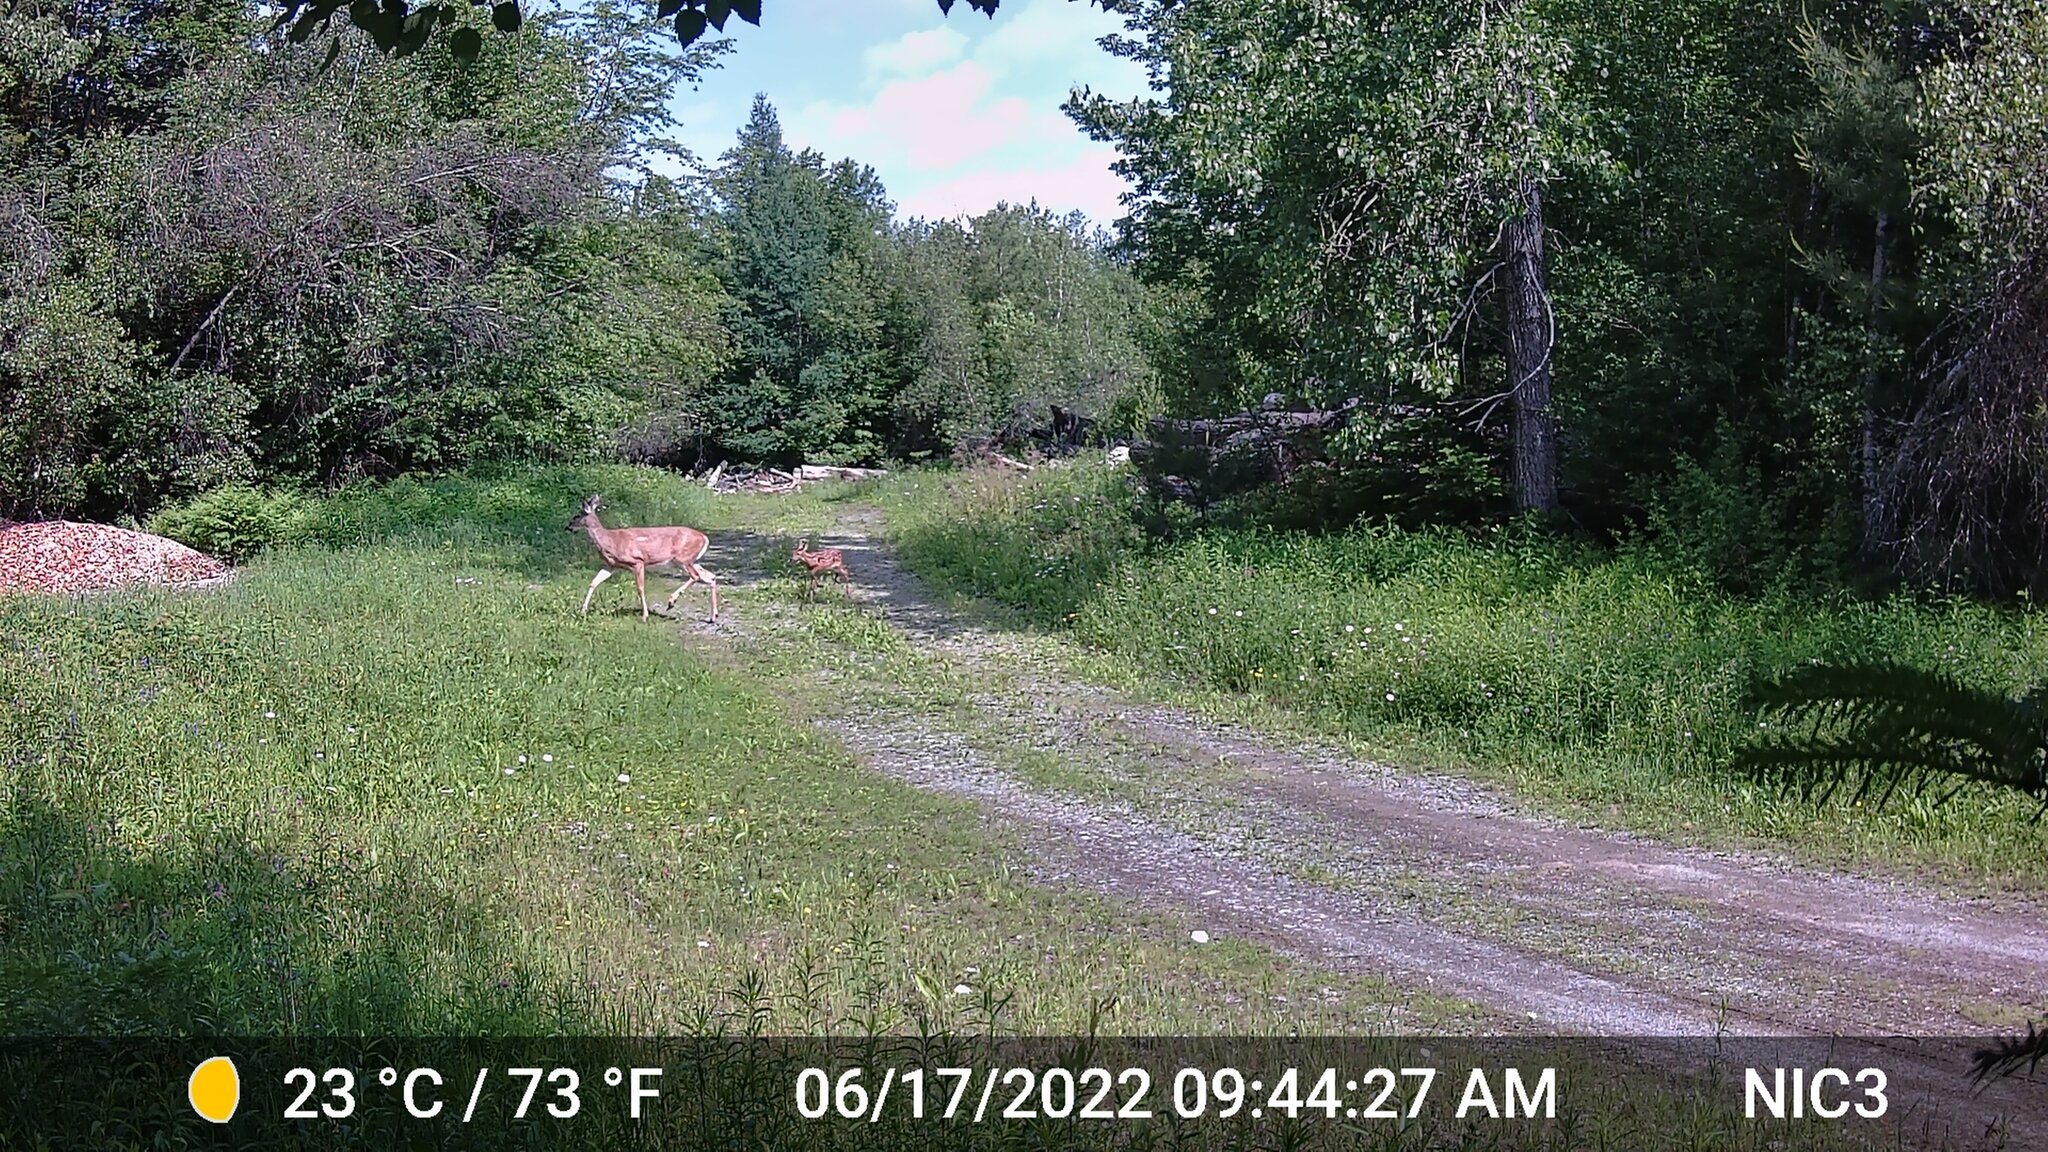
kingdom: Animalia
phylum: Chordata
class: Mammalia
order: Artiodactyla
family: Cervidae
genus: Odocoileus
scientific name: Odocoileus virginianus
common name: White-tailed deer
